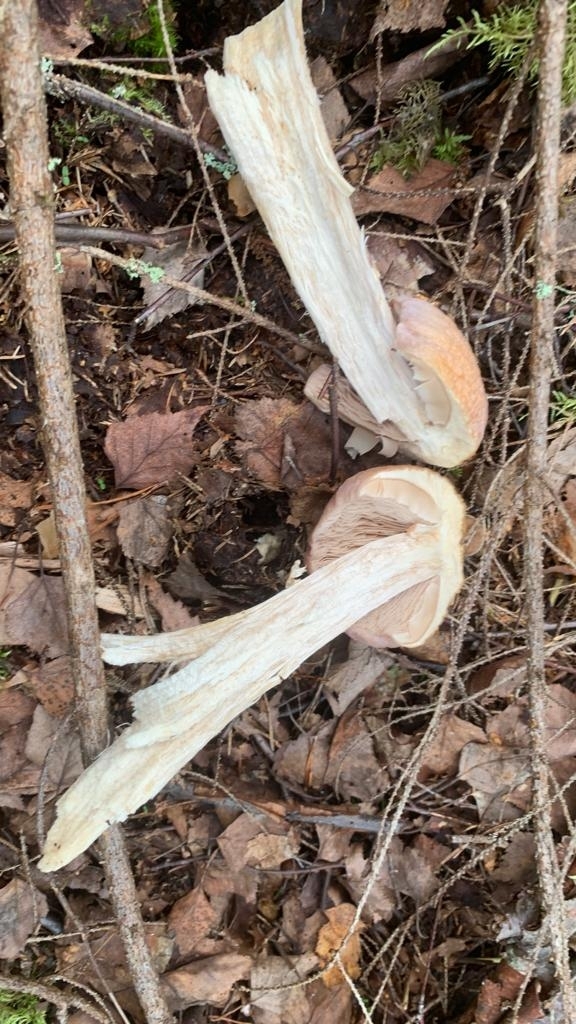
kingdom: Fungi
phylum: Basidiomycota
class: Agaricomycetes
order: Agaricales
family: Cortinariaceae
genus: Cortinarius
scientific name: Cortinarius caperatus
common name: The gypsy
